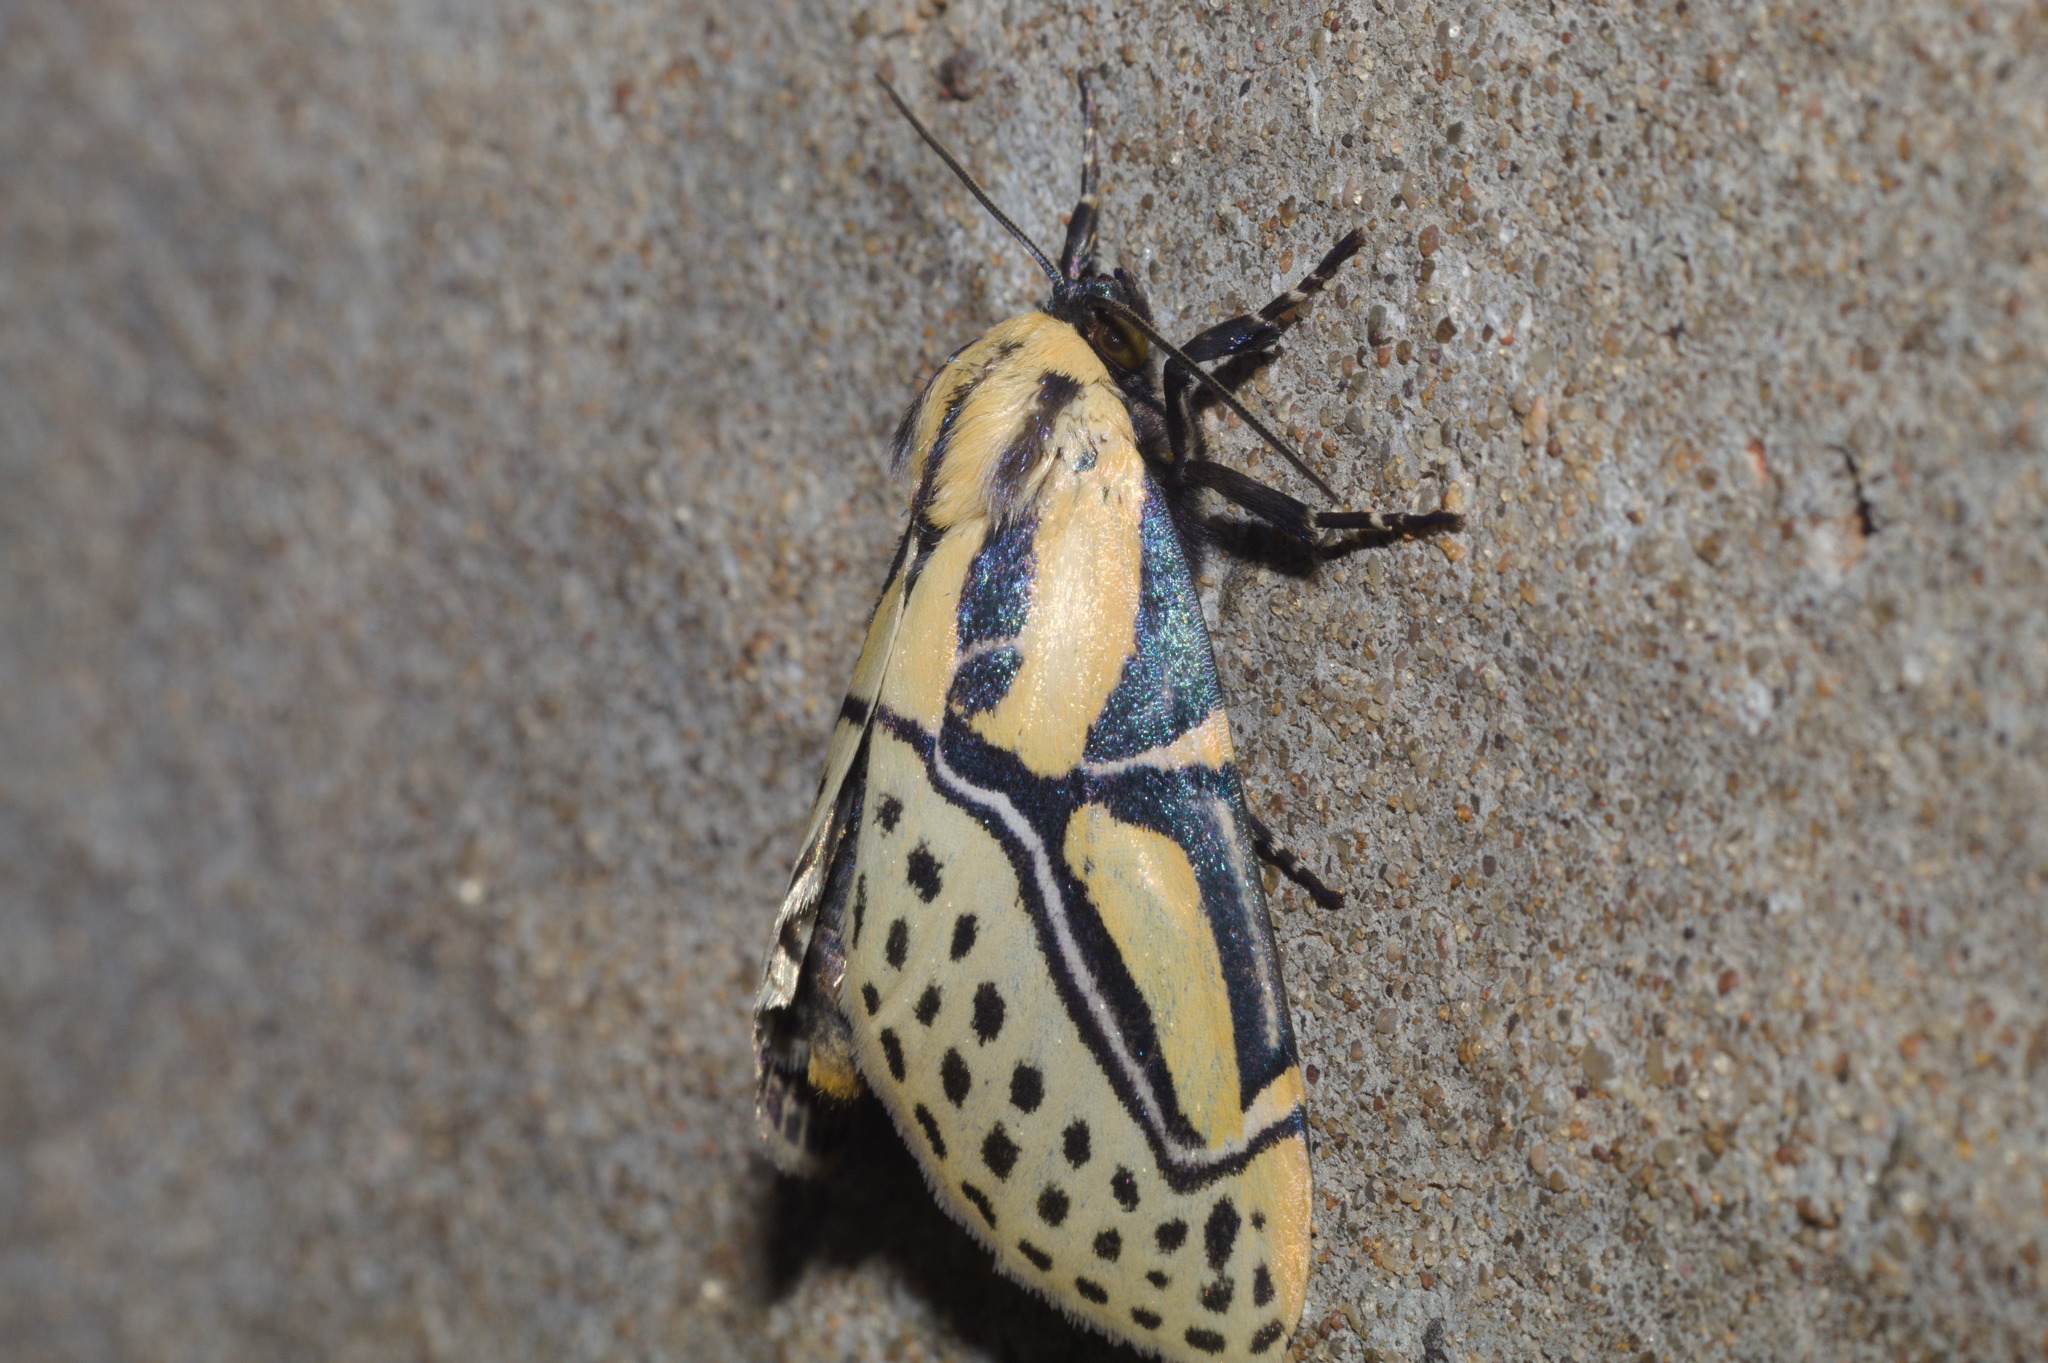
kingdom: Animalia
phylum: Arthropoda
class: Insecta
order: Lepidoptera
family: Erebidae
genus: Diphthera
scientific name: Diphthera festiva
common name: Hieroglyphic moth
